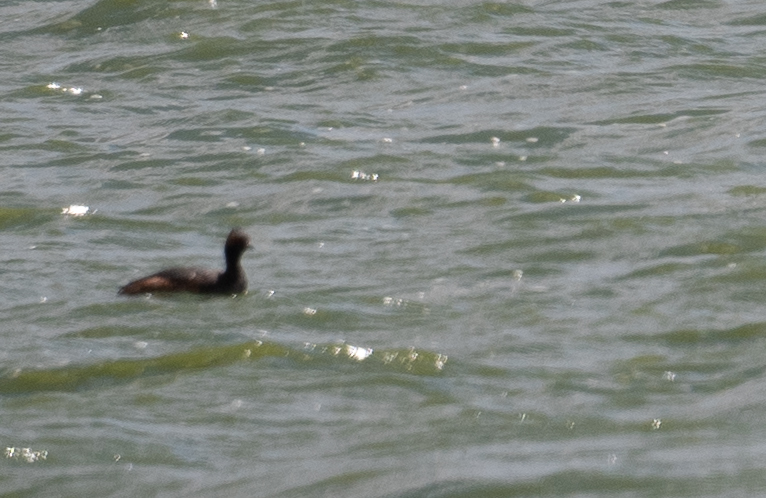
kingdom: Animalia
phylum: Chordata
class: Aves
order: Podicipediformes
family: Podicipedidae
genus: Podiceps
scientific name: Podiceps nigricollis
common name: Black-necked grebe
